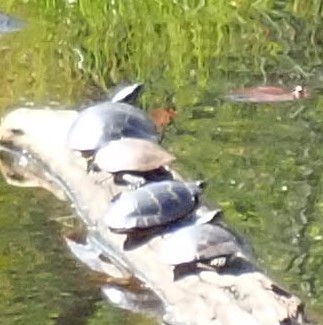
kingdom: Animalia
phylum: Chordata
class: Testudines
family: Emydidae
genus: Chrysemys
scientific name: Chrysemys picta
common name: Painted turtle
